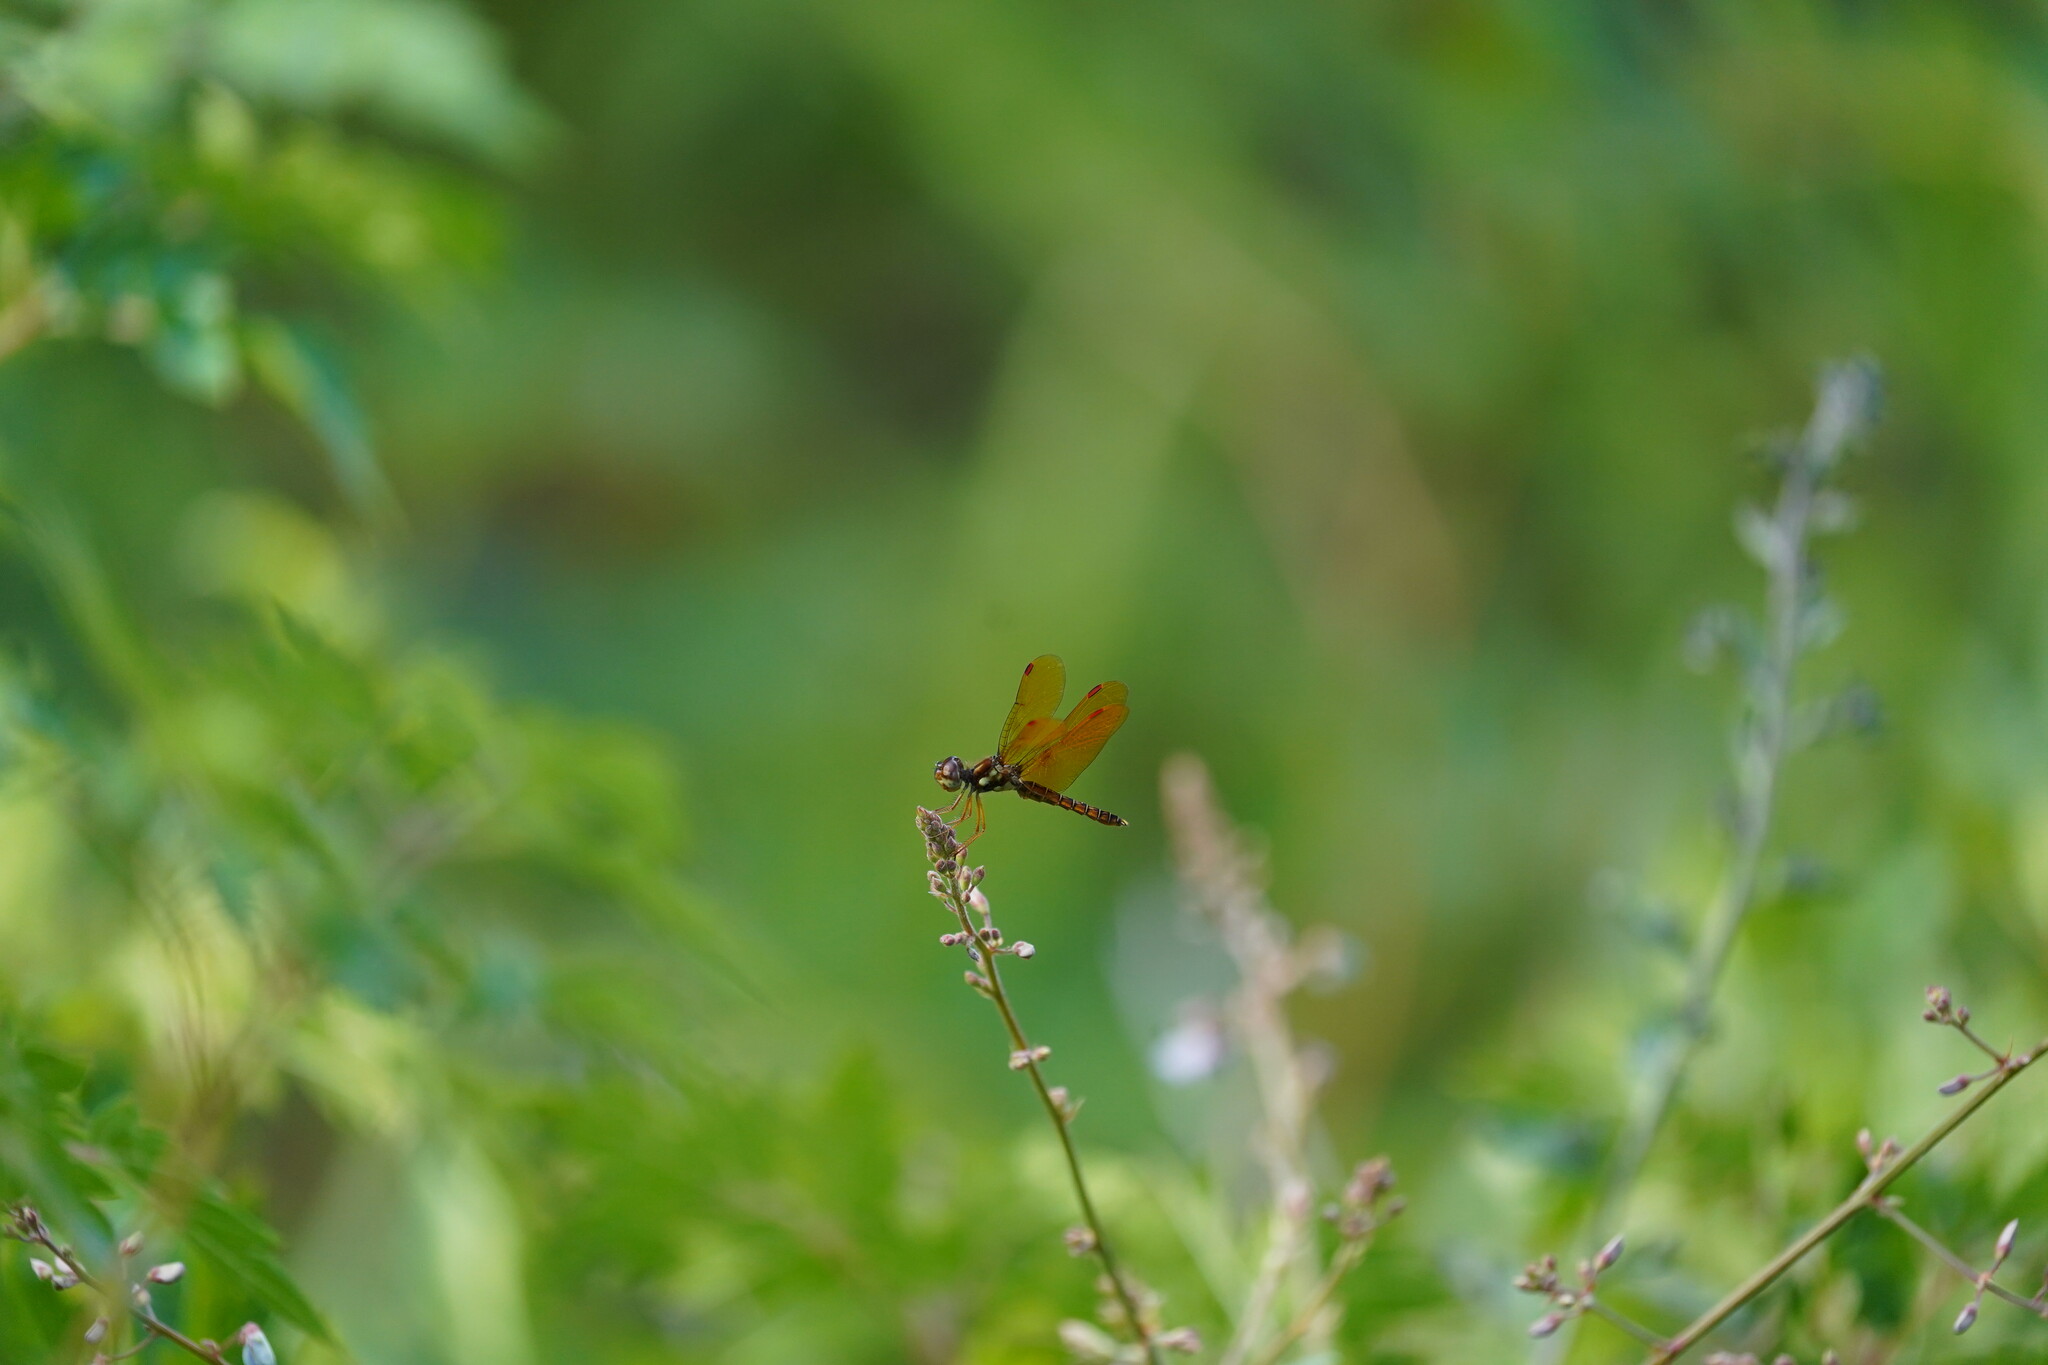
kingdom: Animalia
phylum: Arthropoda
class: Insecta
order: Odonata
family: Libellulidae
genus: Perithemis
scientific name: Perithemis tenera
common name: Eastern amberwing
